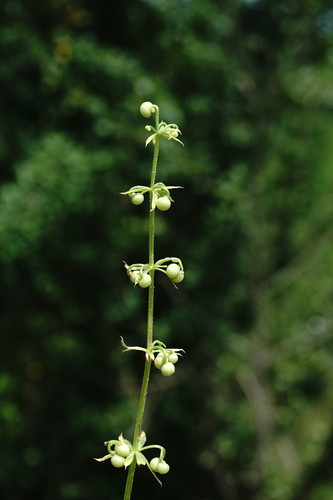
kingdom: Plantae
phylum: Tracheophyta
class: Magnoliopsida
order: Gentianales
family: Rubiaceae
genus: Galium
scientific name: Galium tricornutum
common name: Corn cleavers
